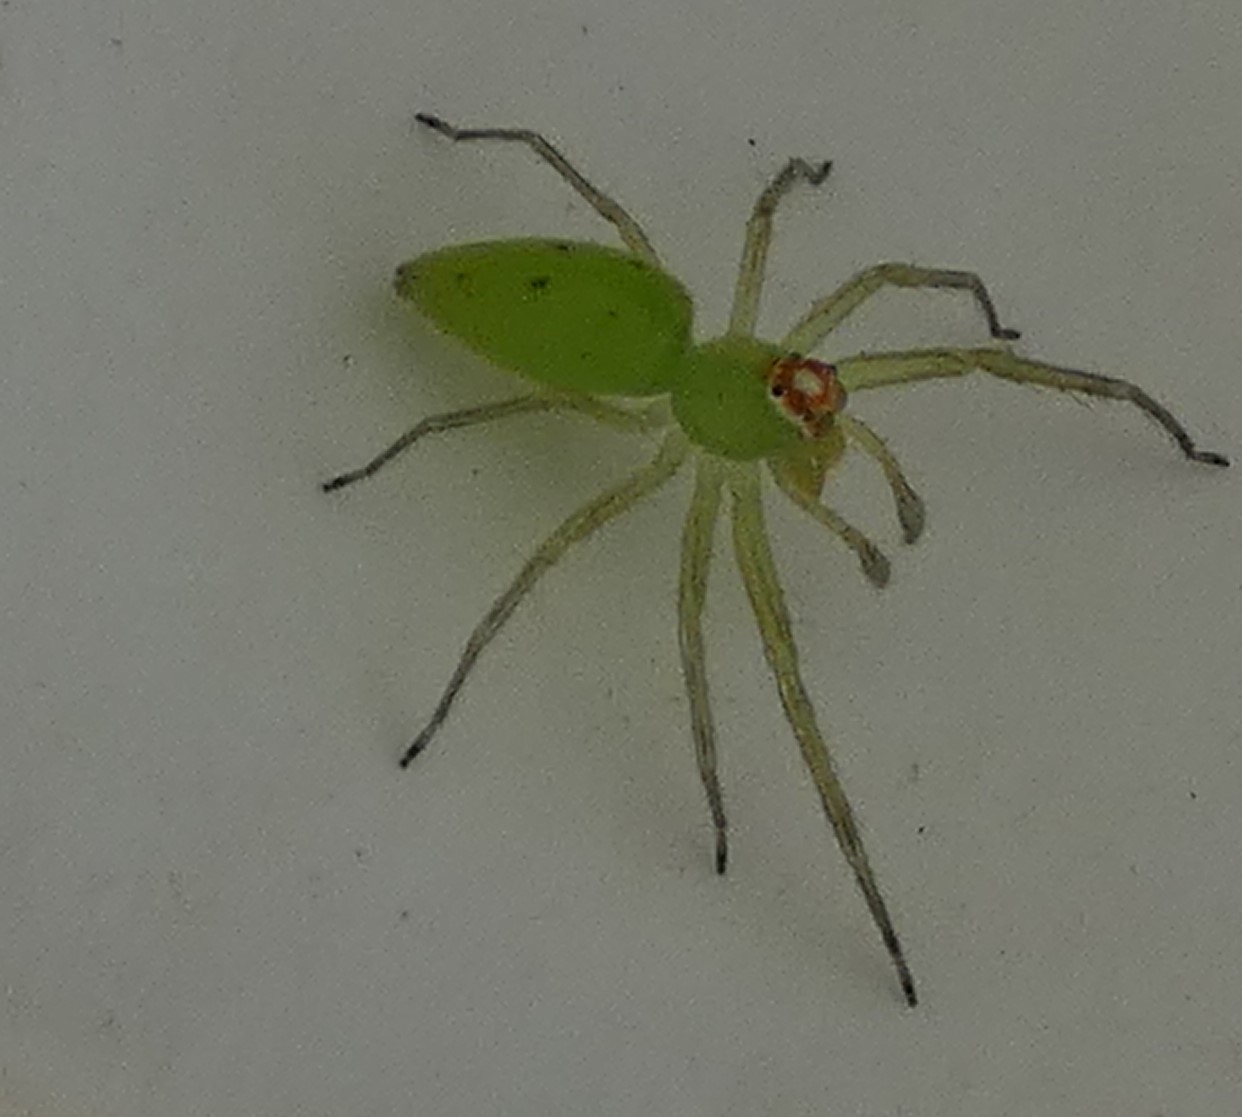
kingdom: Animalia
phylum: Arthropoda
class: Arachnida
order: Araneae
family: Salticidae
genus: Lyssomanes
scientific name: Lyssomanes viridis
